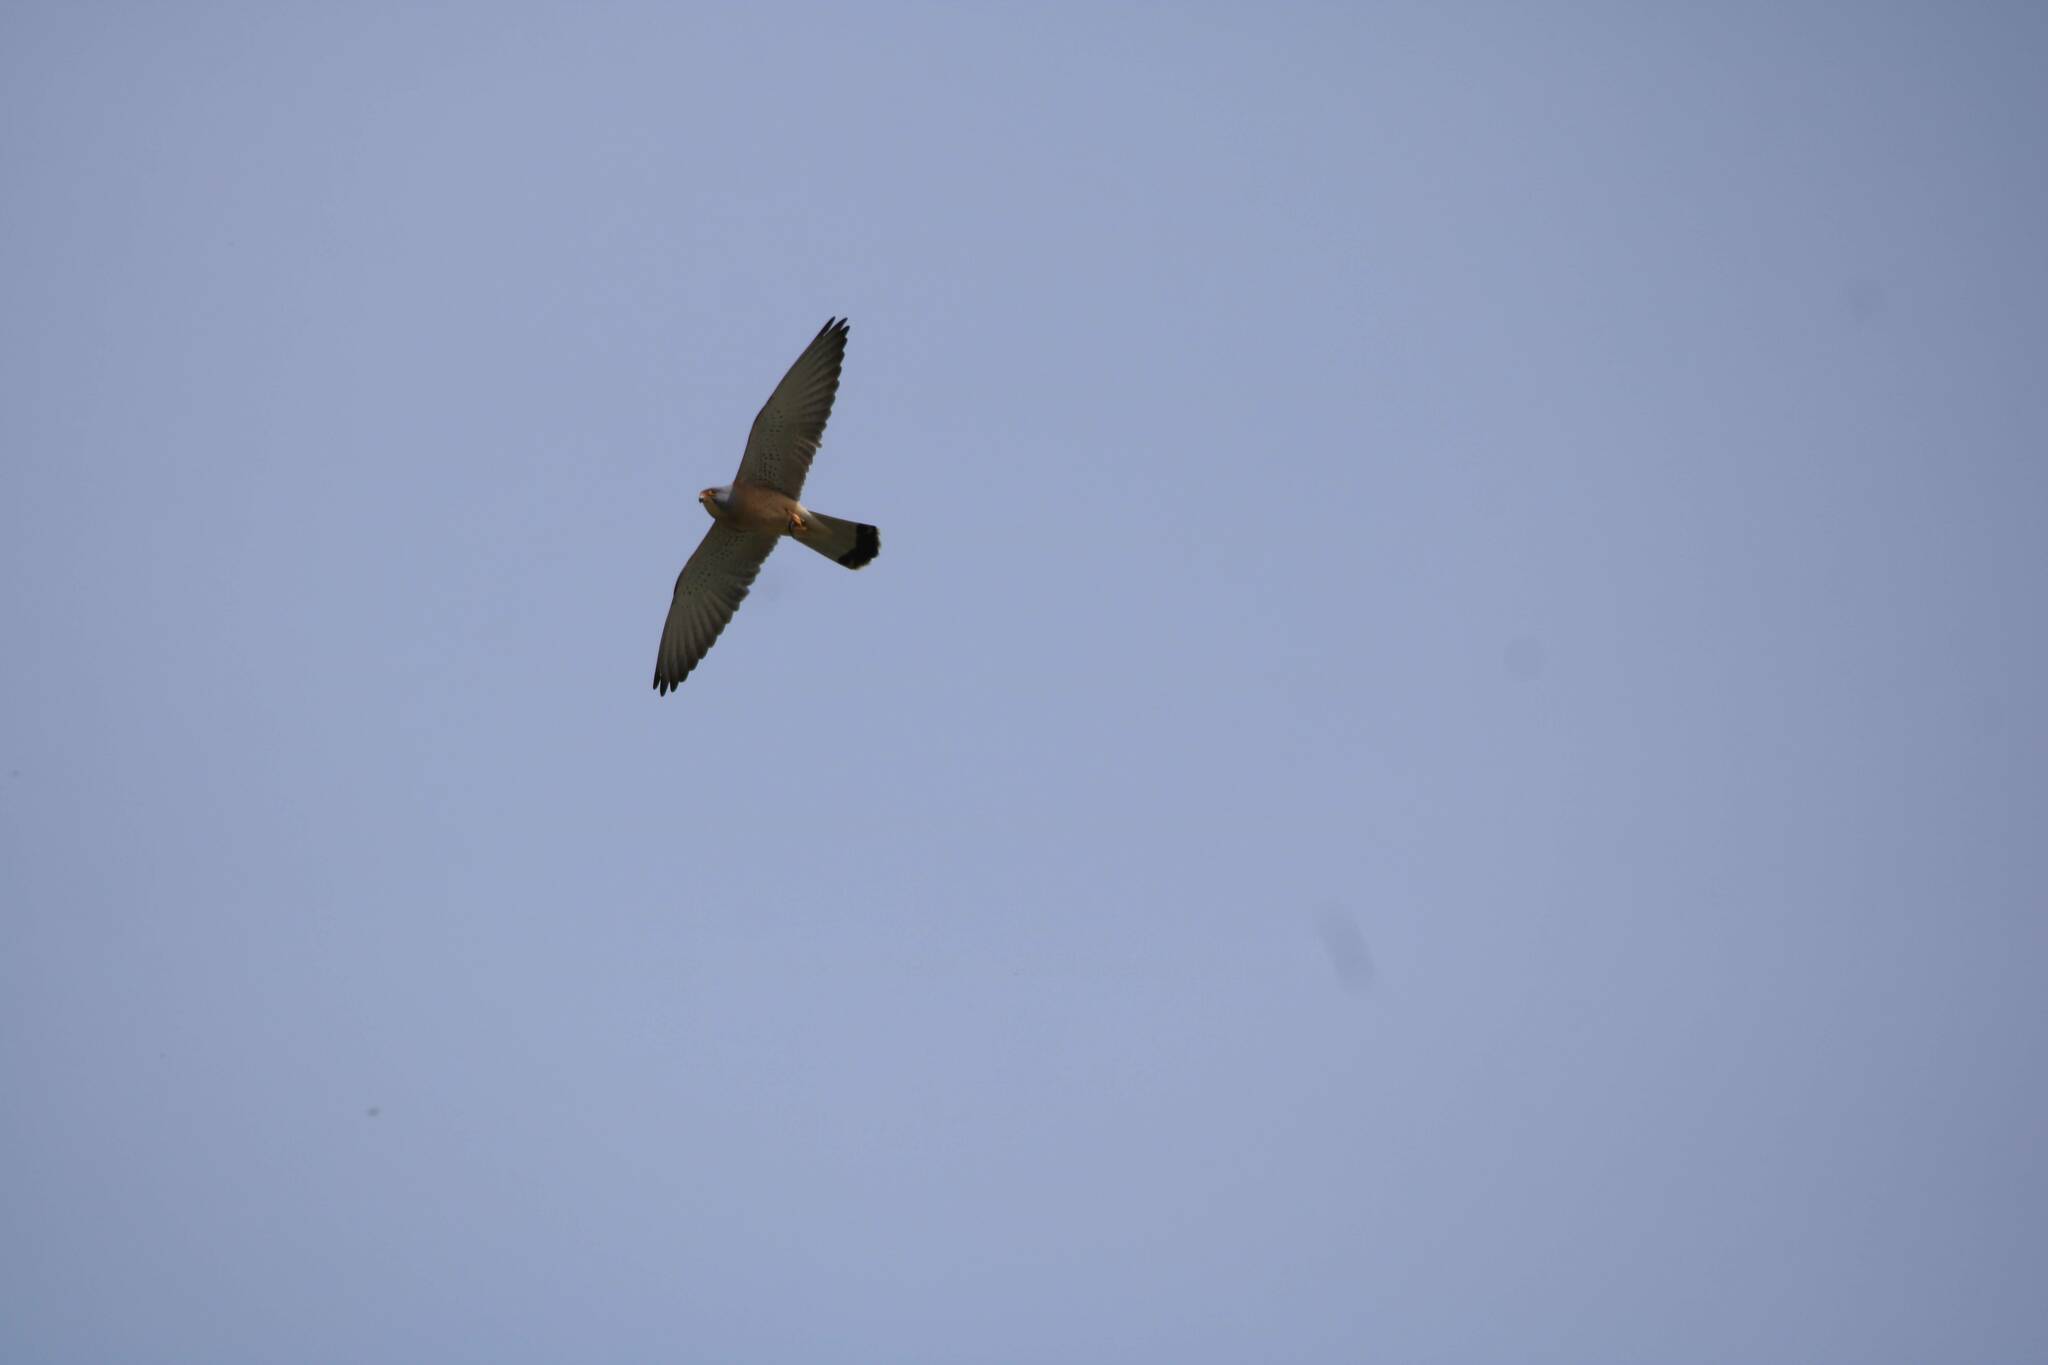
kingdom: Animalia
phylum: Chordata
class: Aves
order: Falconiformes
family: Falconidae
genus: Falco
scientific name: Falco naumanni
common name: Lesser kestrel
